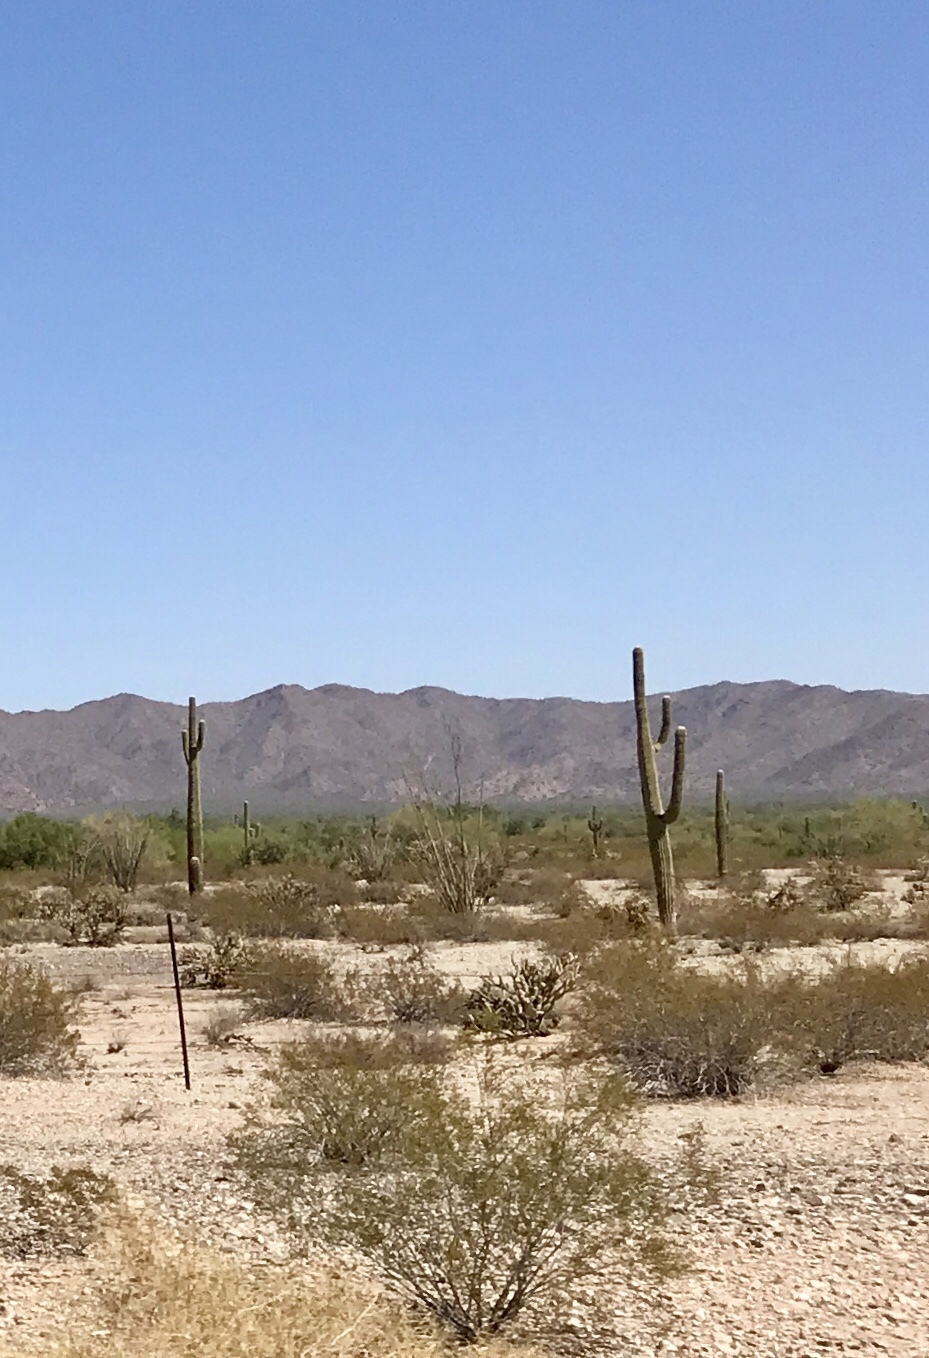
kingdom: Plantae
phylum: Tracheophyta
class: Magnoliopsida
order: Caryophyllales
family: Cactaceae
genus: Carnegiea
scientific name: Carnegiea gigantea
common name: Saguaro
